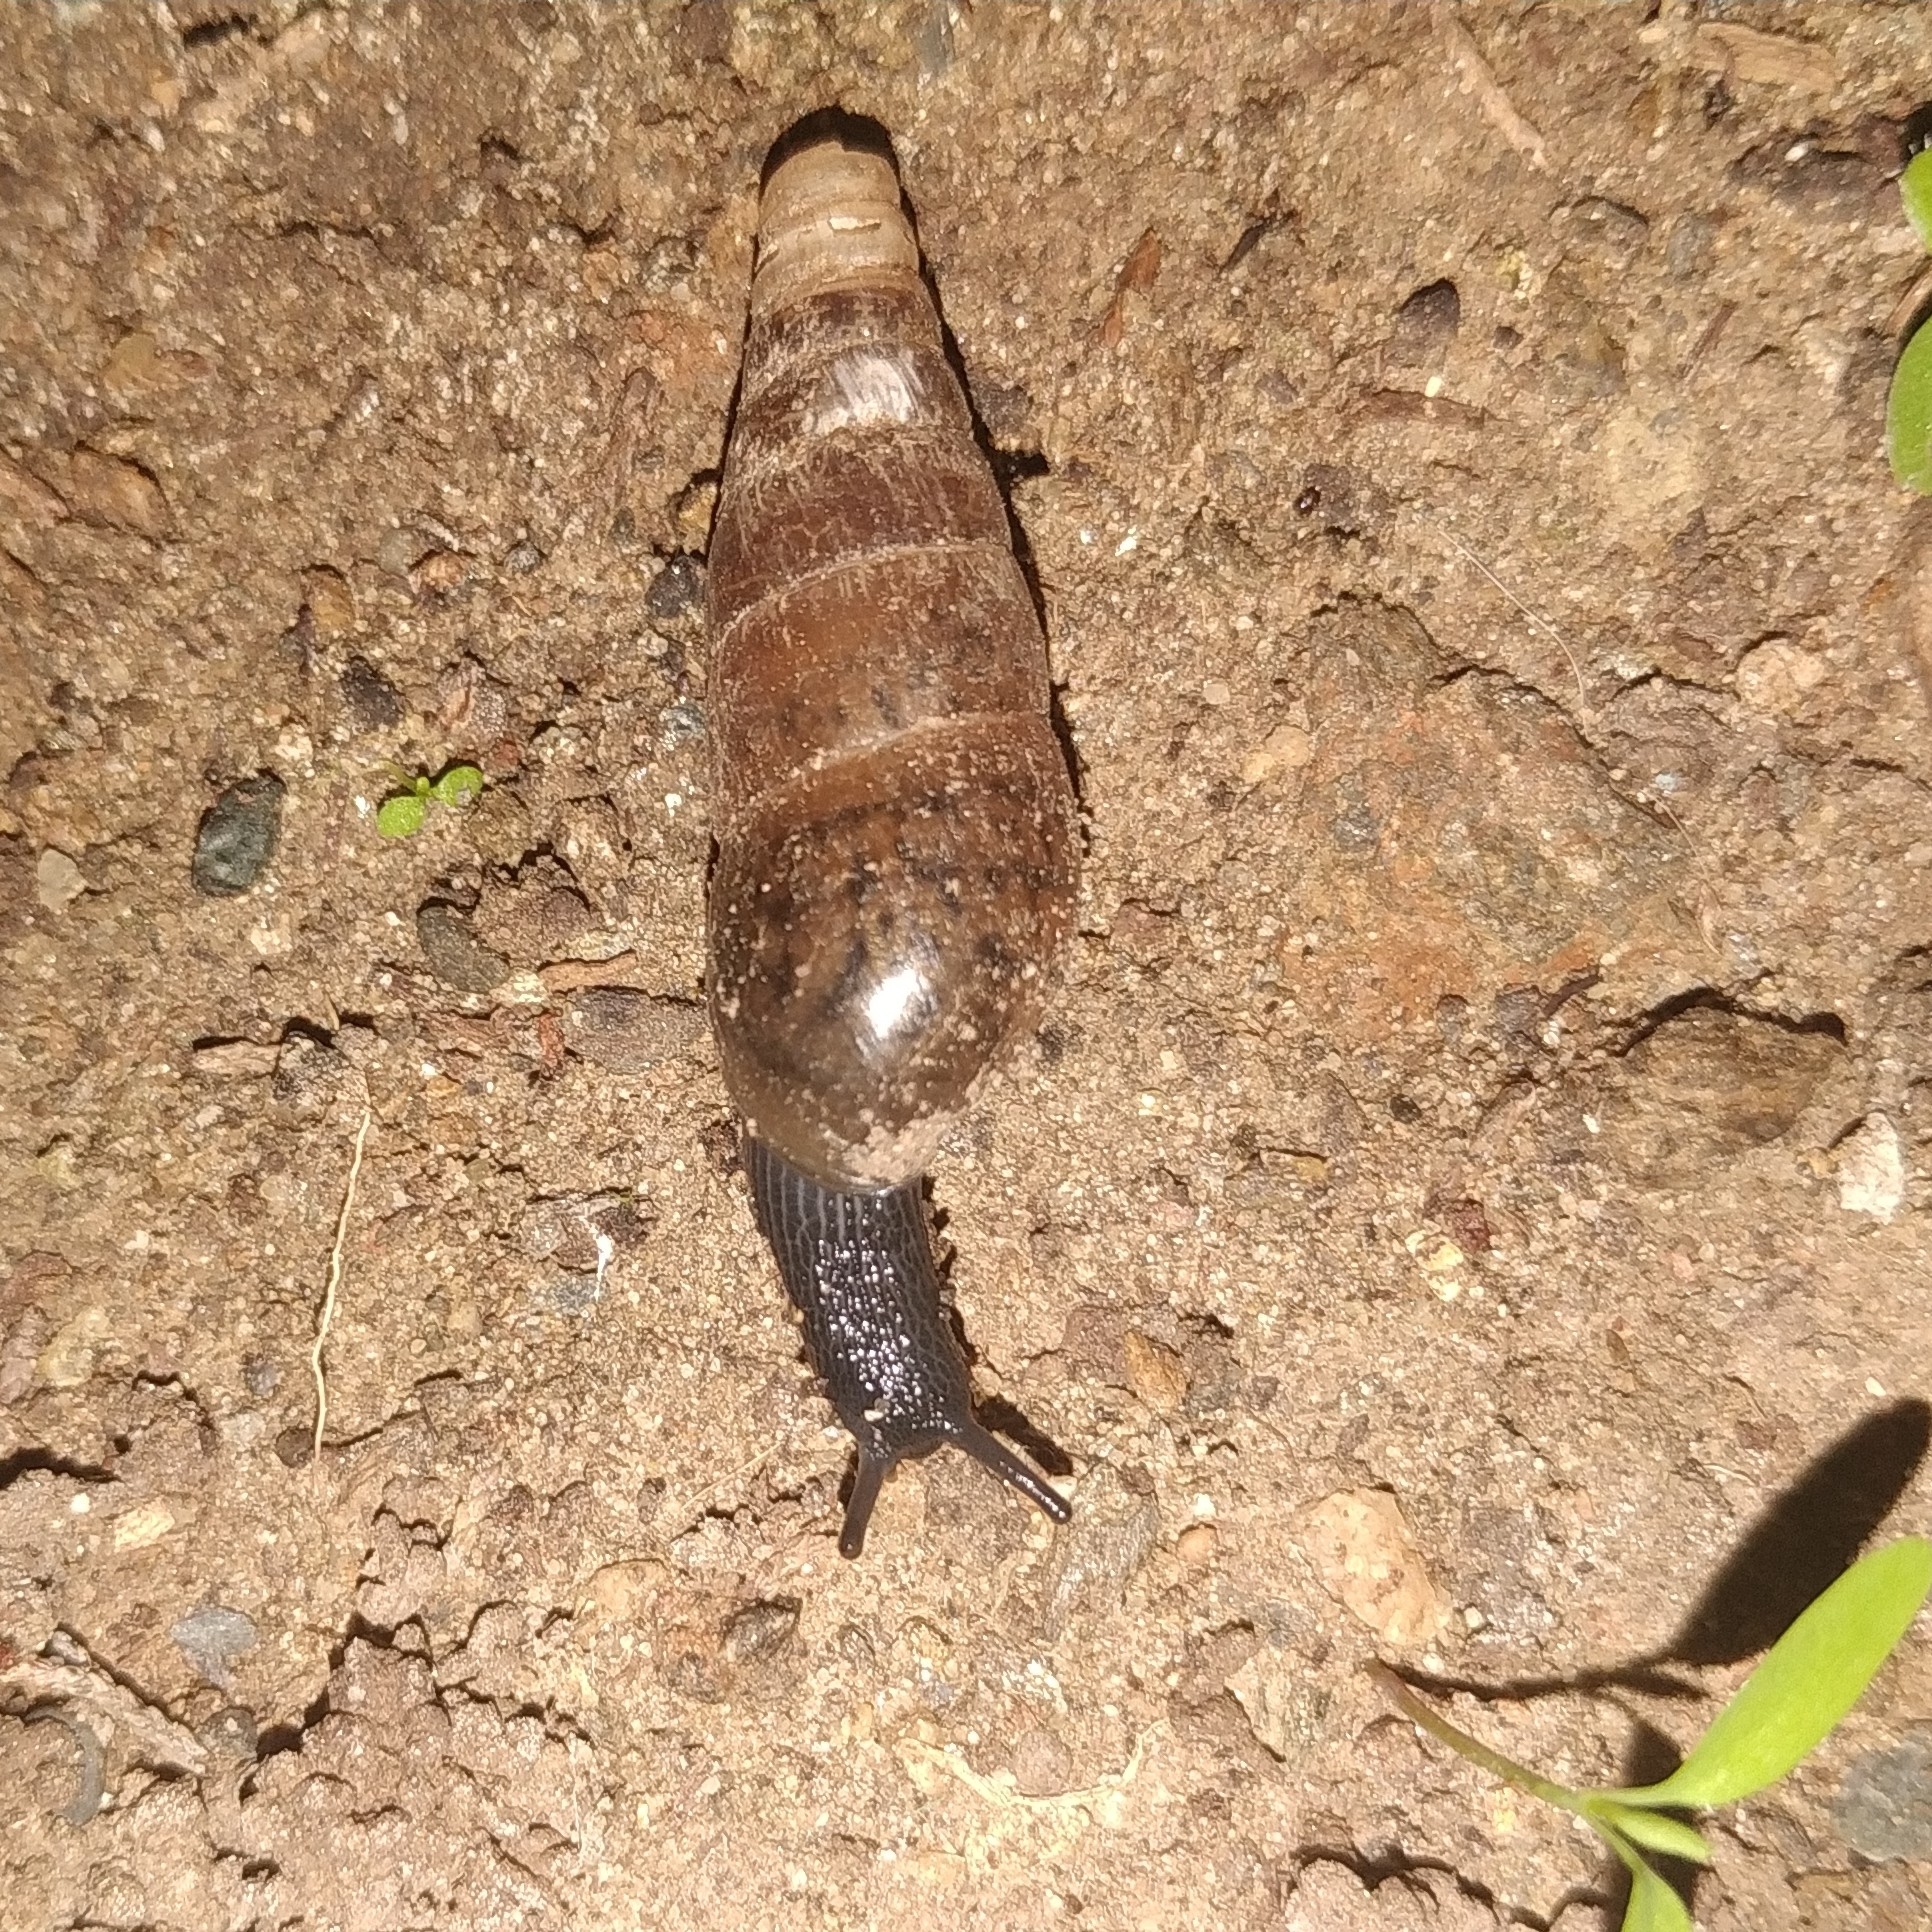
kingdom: Animalia
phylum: Mollusca
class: Gastropoda
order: Stylommatophora
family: Achatinidae
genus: Rumina
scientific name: Rumina decollata
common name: Decollate snail
